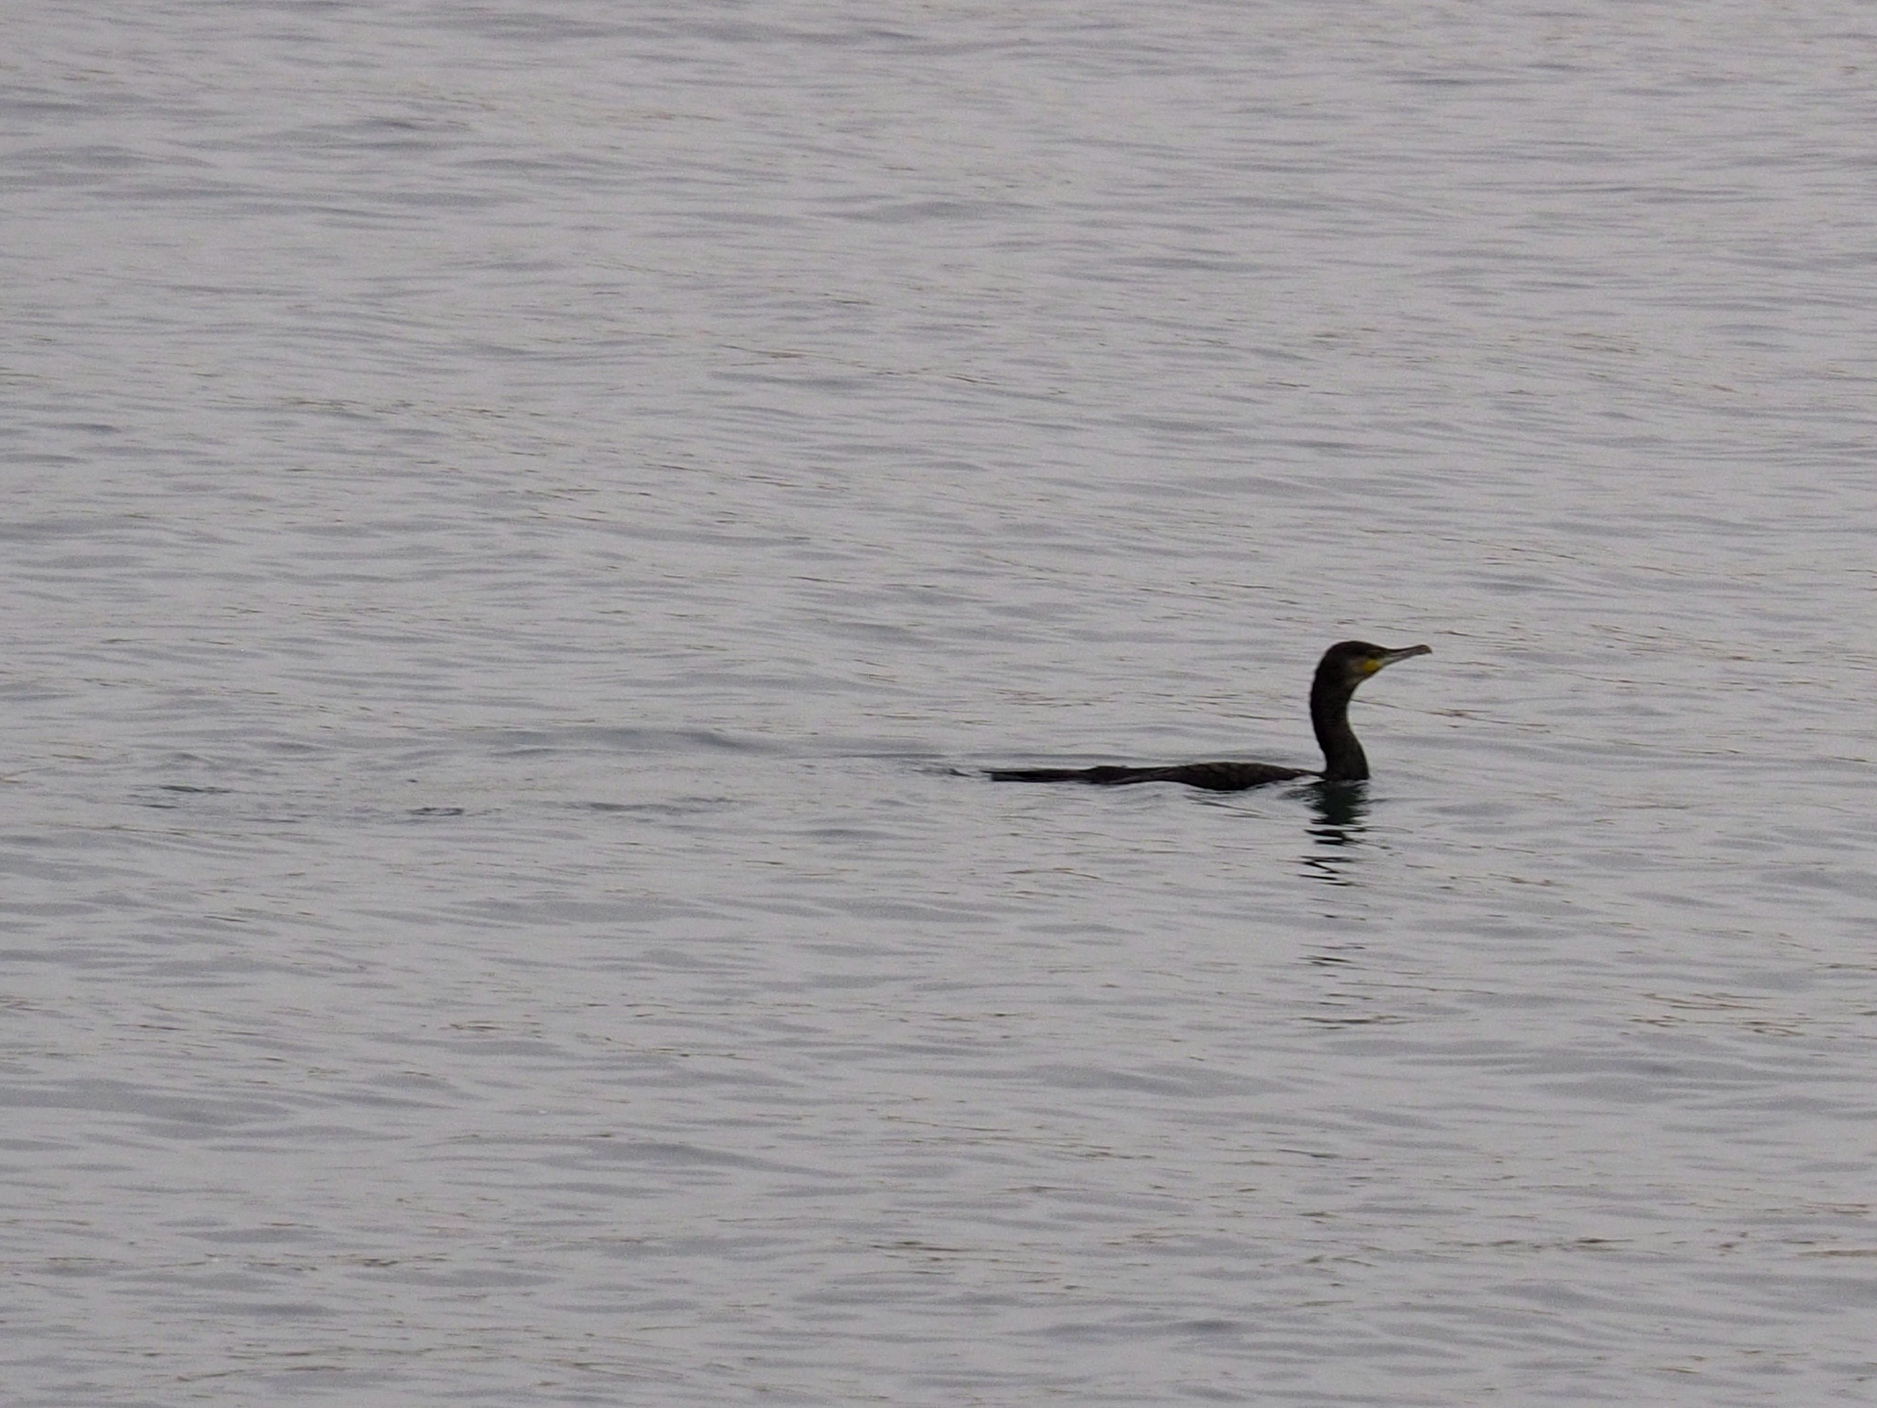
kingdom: Animalia
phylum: Chordata
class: Aves
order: Suliformes
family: Phalacrocoracidae
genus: Phalacrocorax
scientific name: Phalacrocorax carbo
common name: Great cormorant
